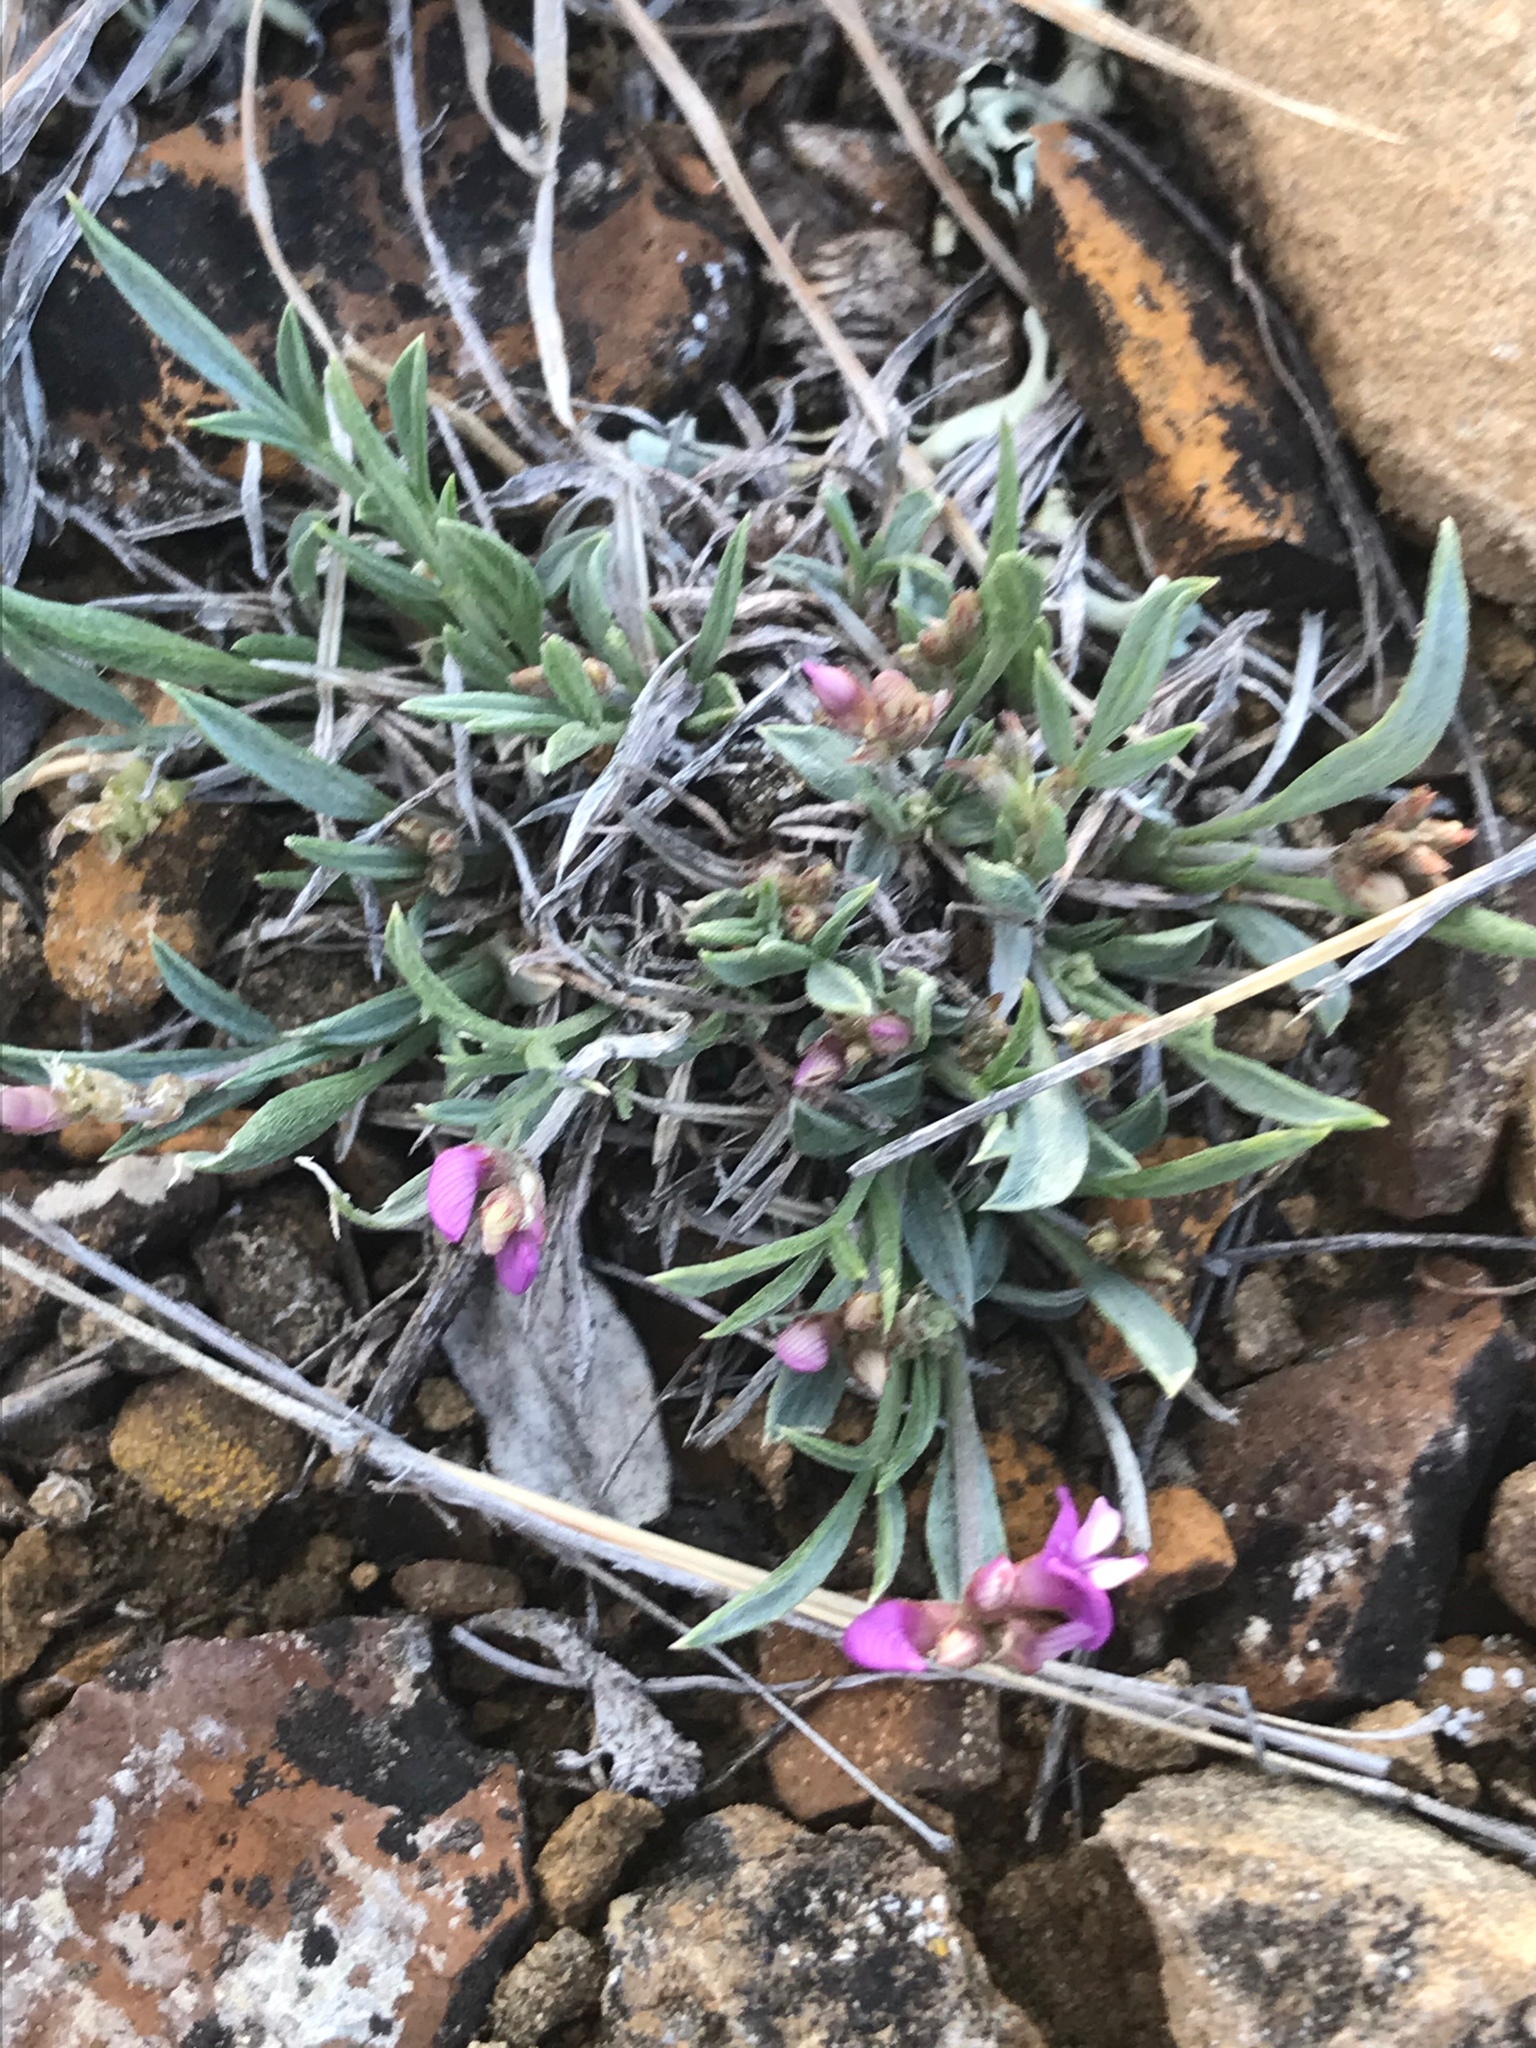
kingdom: Plantae
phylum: Tracheophyta
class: Magnoliopsida
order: Fabales
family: Fabaceae
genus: Astragalus
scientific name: Astragalus spatulatus
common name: Draba milk-vetch
